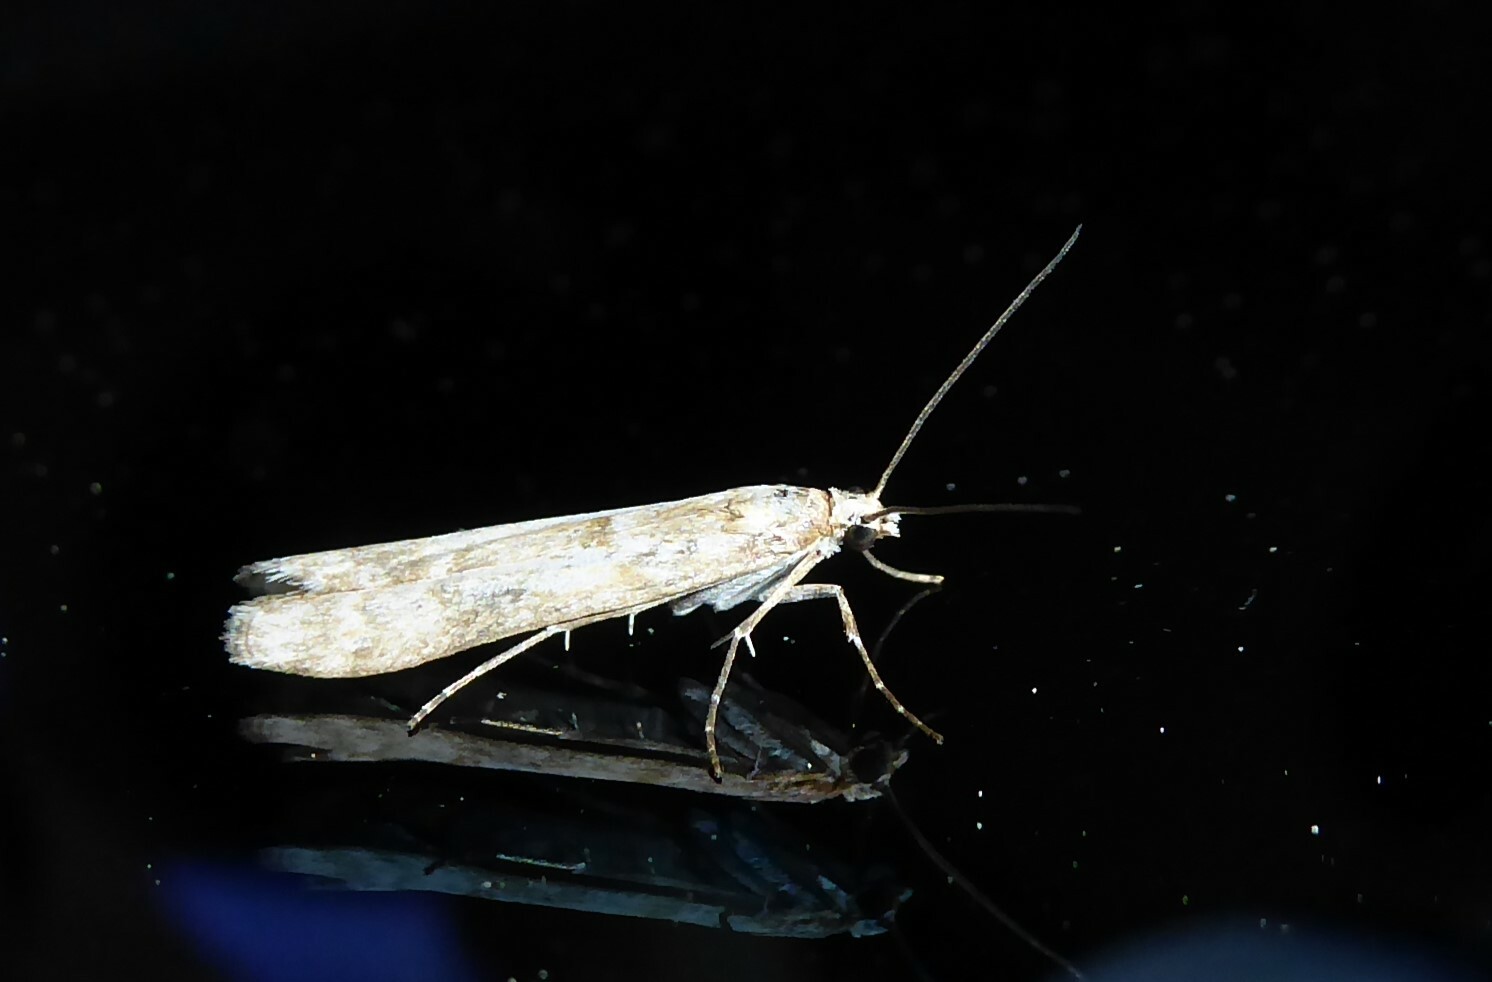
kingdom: Animalia
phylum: Arthropoda
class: Insecta
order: Lepidoptera
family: Crambidae
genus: Eudonia
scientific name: Eudonia leptalea
